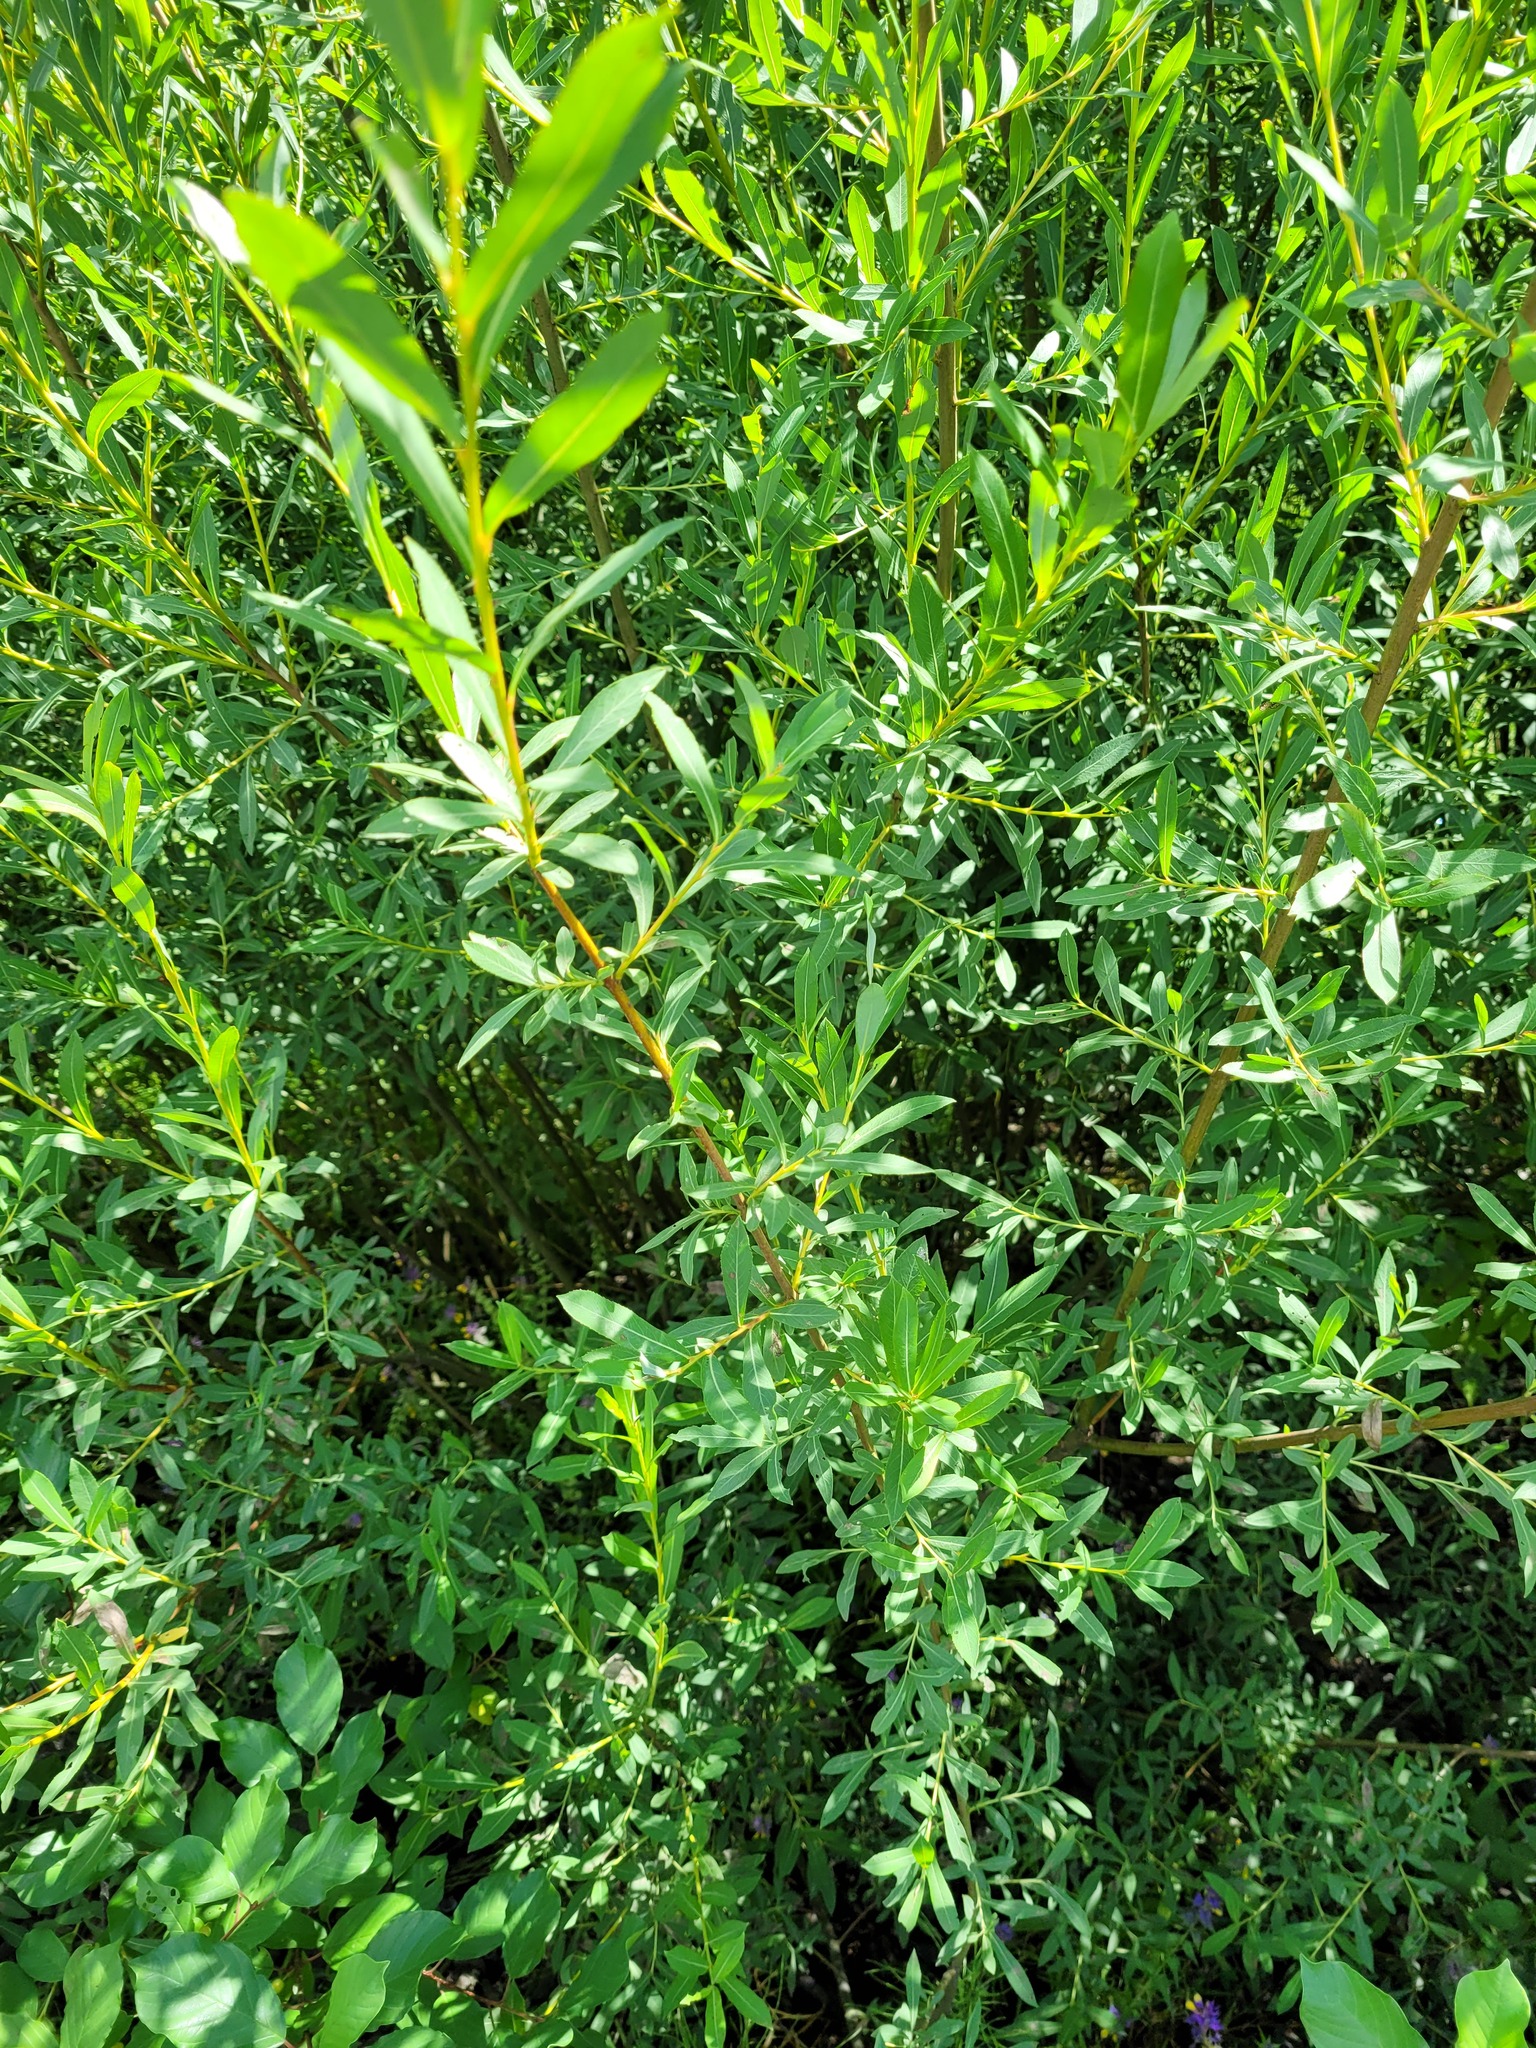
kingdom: Plantae
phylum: Tracheophyta
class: Magnoliopsida
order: Malpighiales
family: Salicaceae
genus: Salix
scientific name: Salix purpurea
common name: Purple willow
